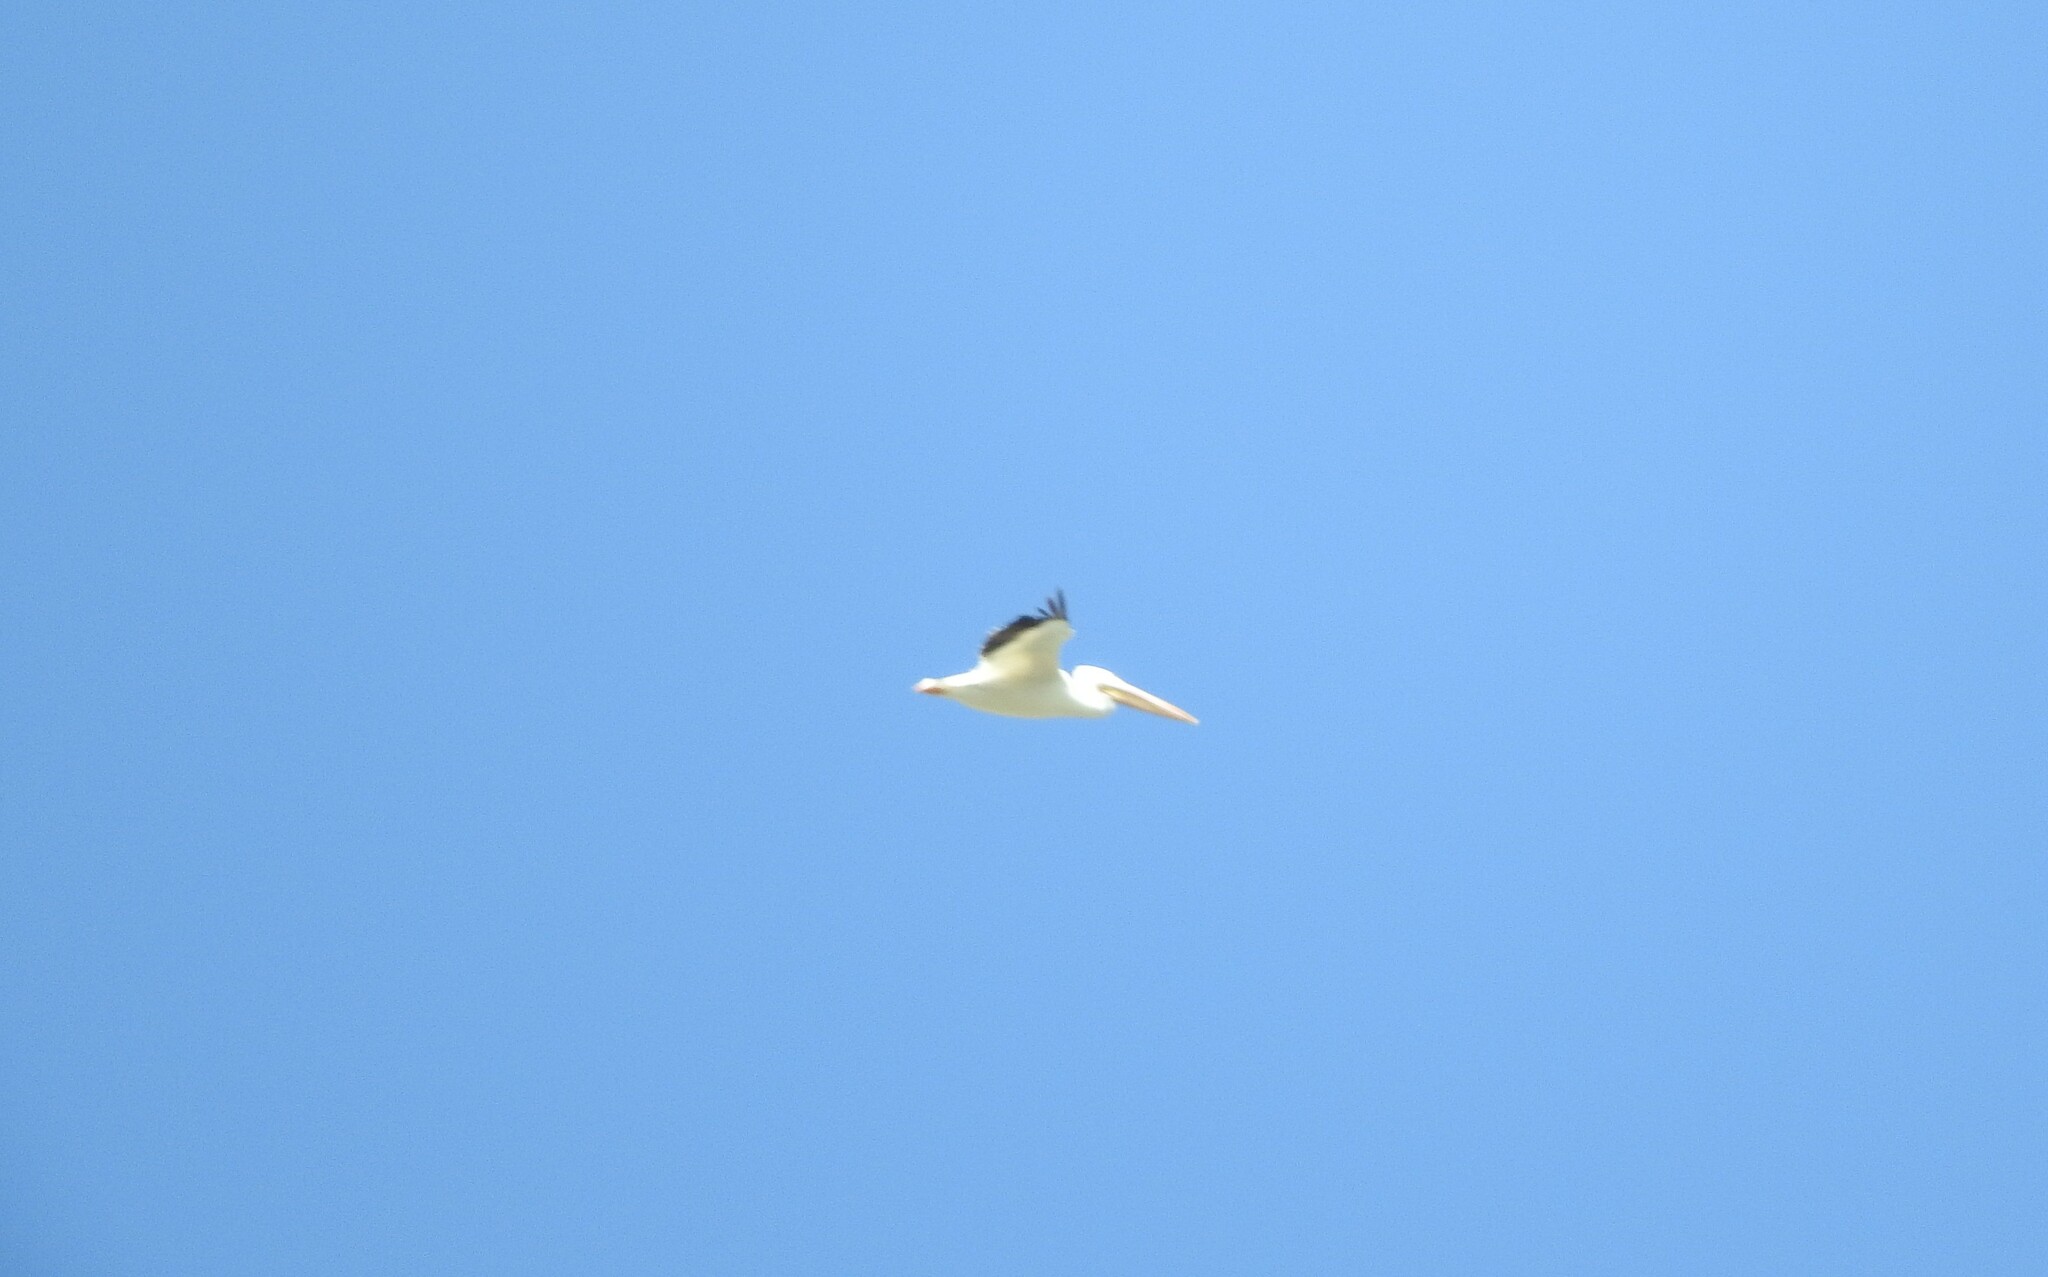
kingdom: Animalia
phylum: Chordata
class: Aves
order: Pelecaniformes
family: Pelecanidae
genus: Pelecanus
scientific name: Pelecanus erythrorhynchos
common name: American white pelican
